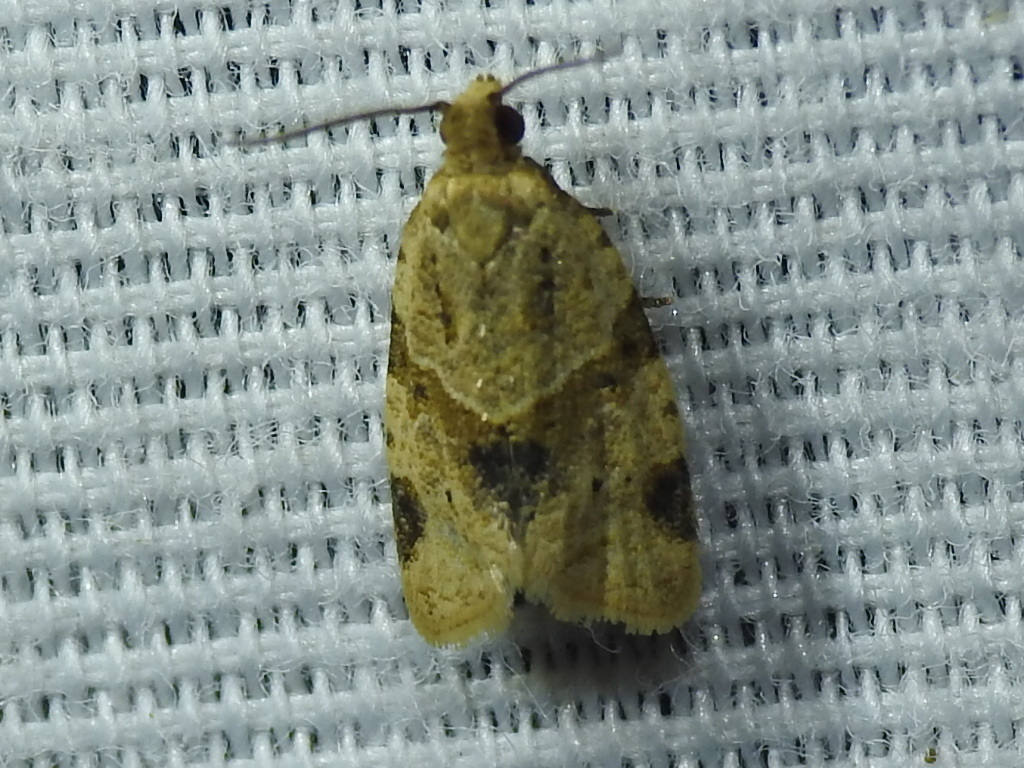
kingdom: Animalia
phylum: Arthropoda
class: Insecta
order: Lepidoptera
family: Tortricidae
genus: Clepsis
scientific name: Clepsis peritana
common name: Garden tortrix
